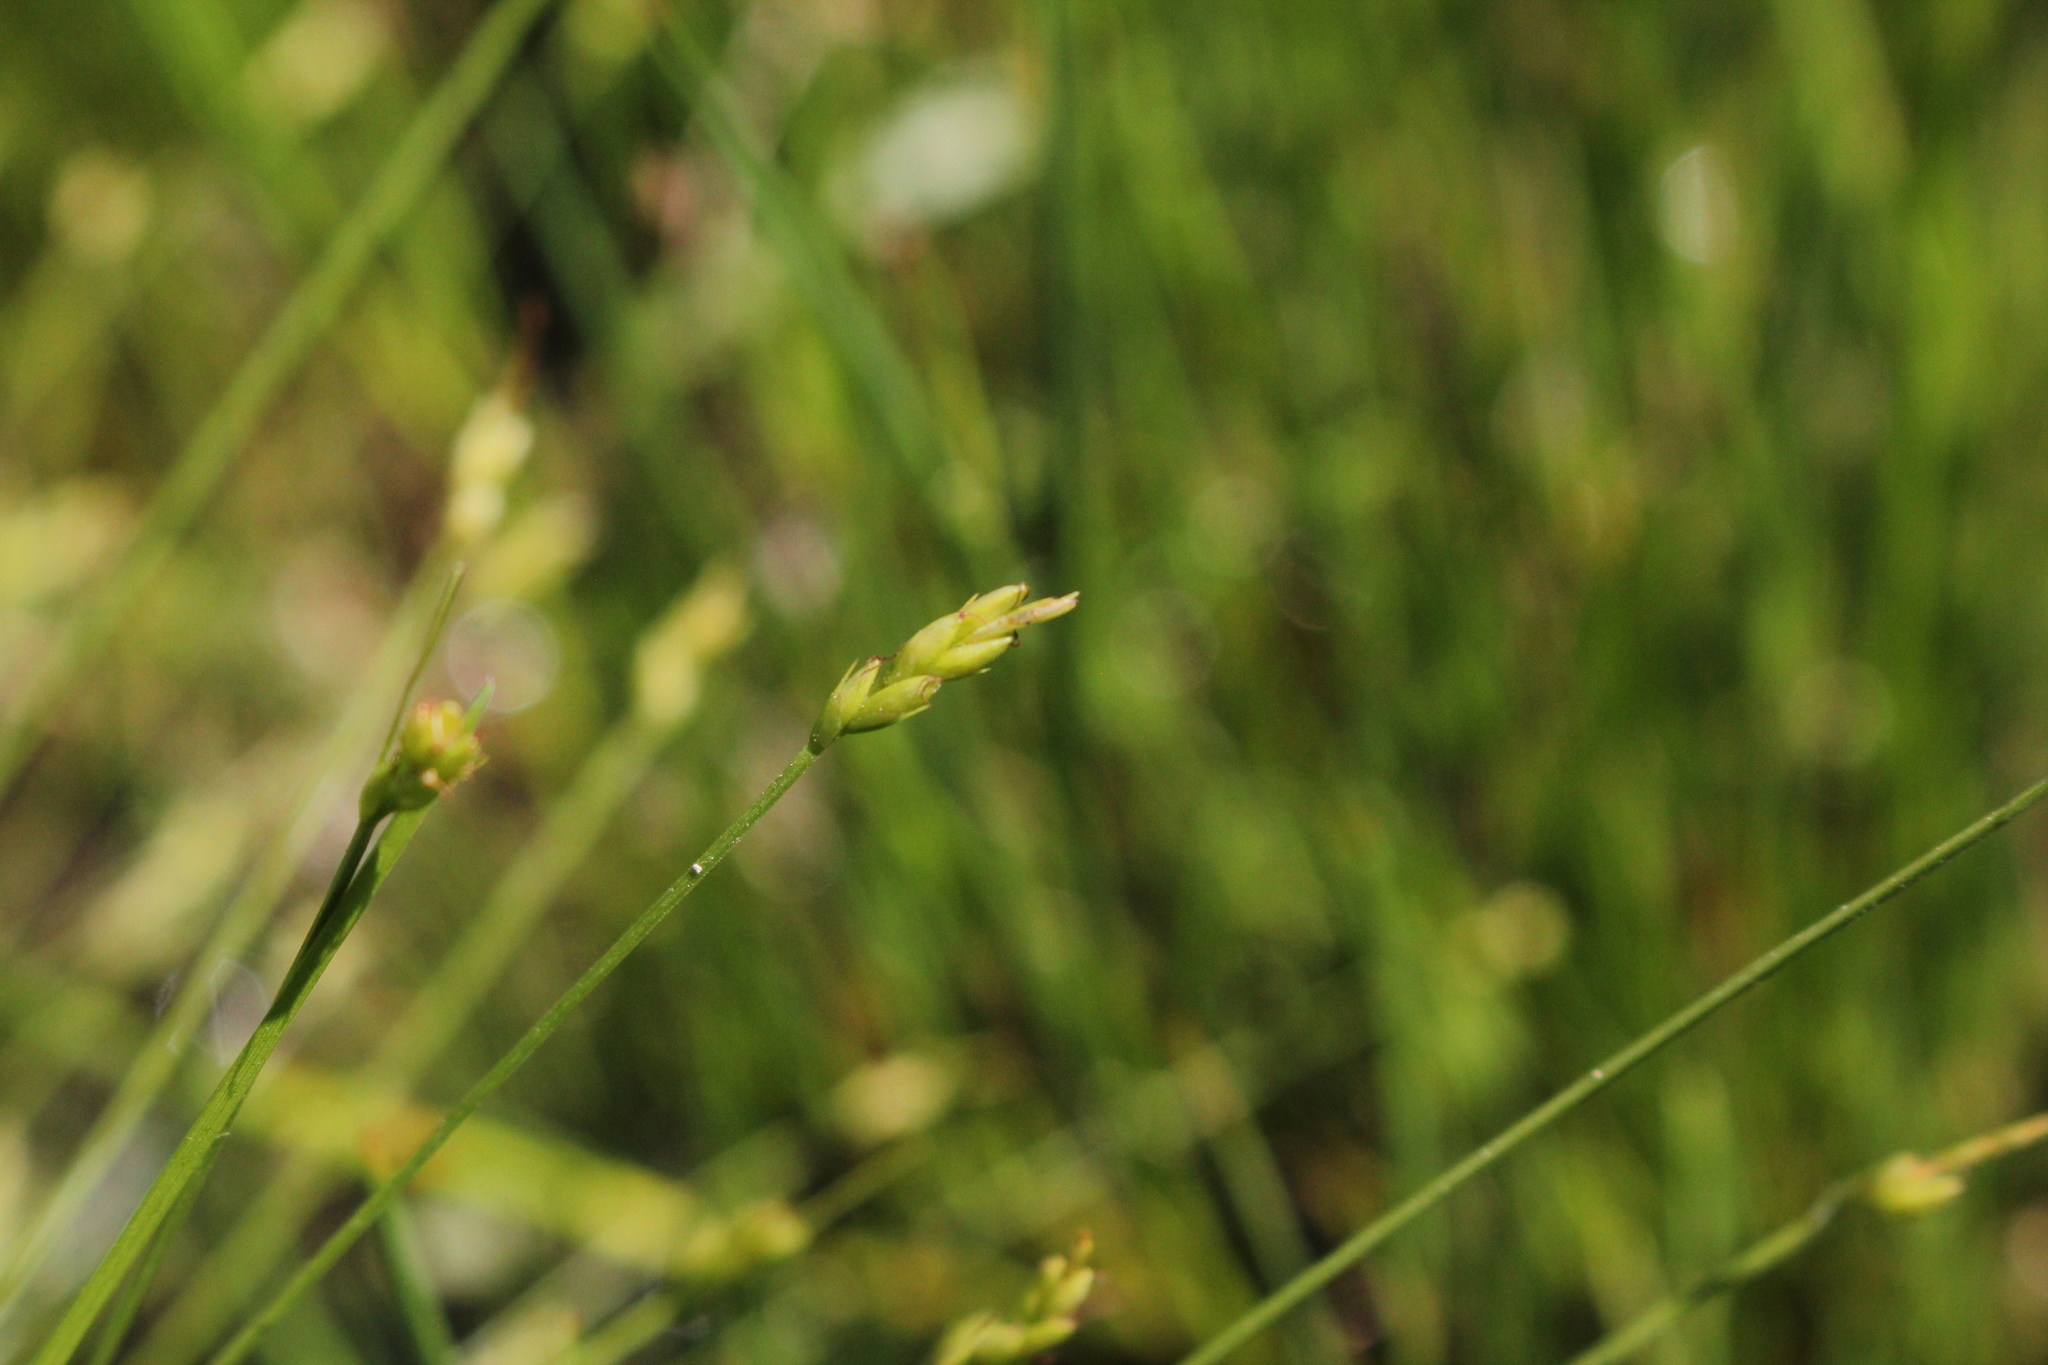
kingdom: Plantae
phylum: Tracheophyta
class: Liliopsida
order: Poales
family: Cyperaceae
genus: Carex
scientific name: Carex leptalea
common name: Bristly-stalked sedge
